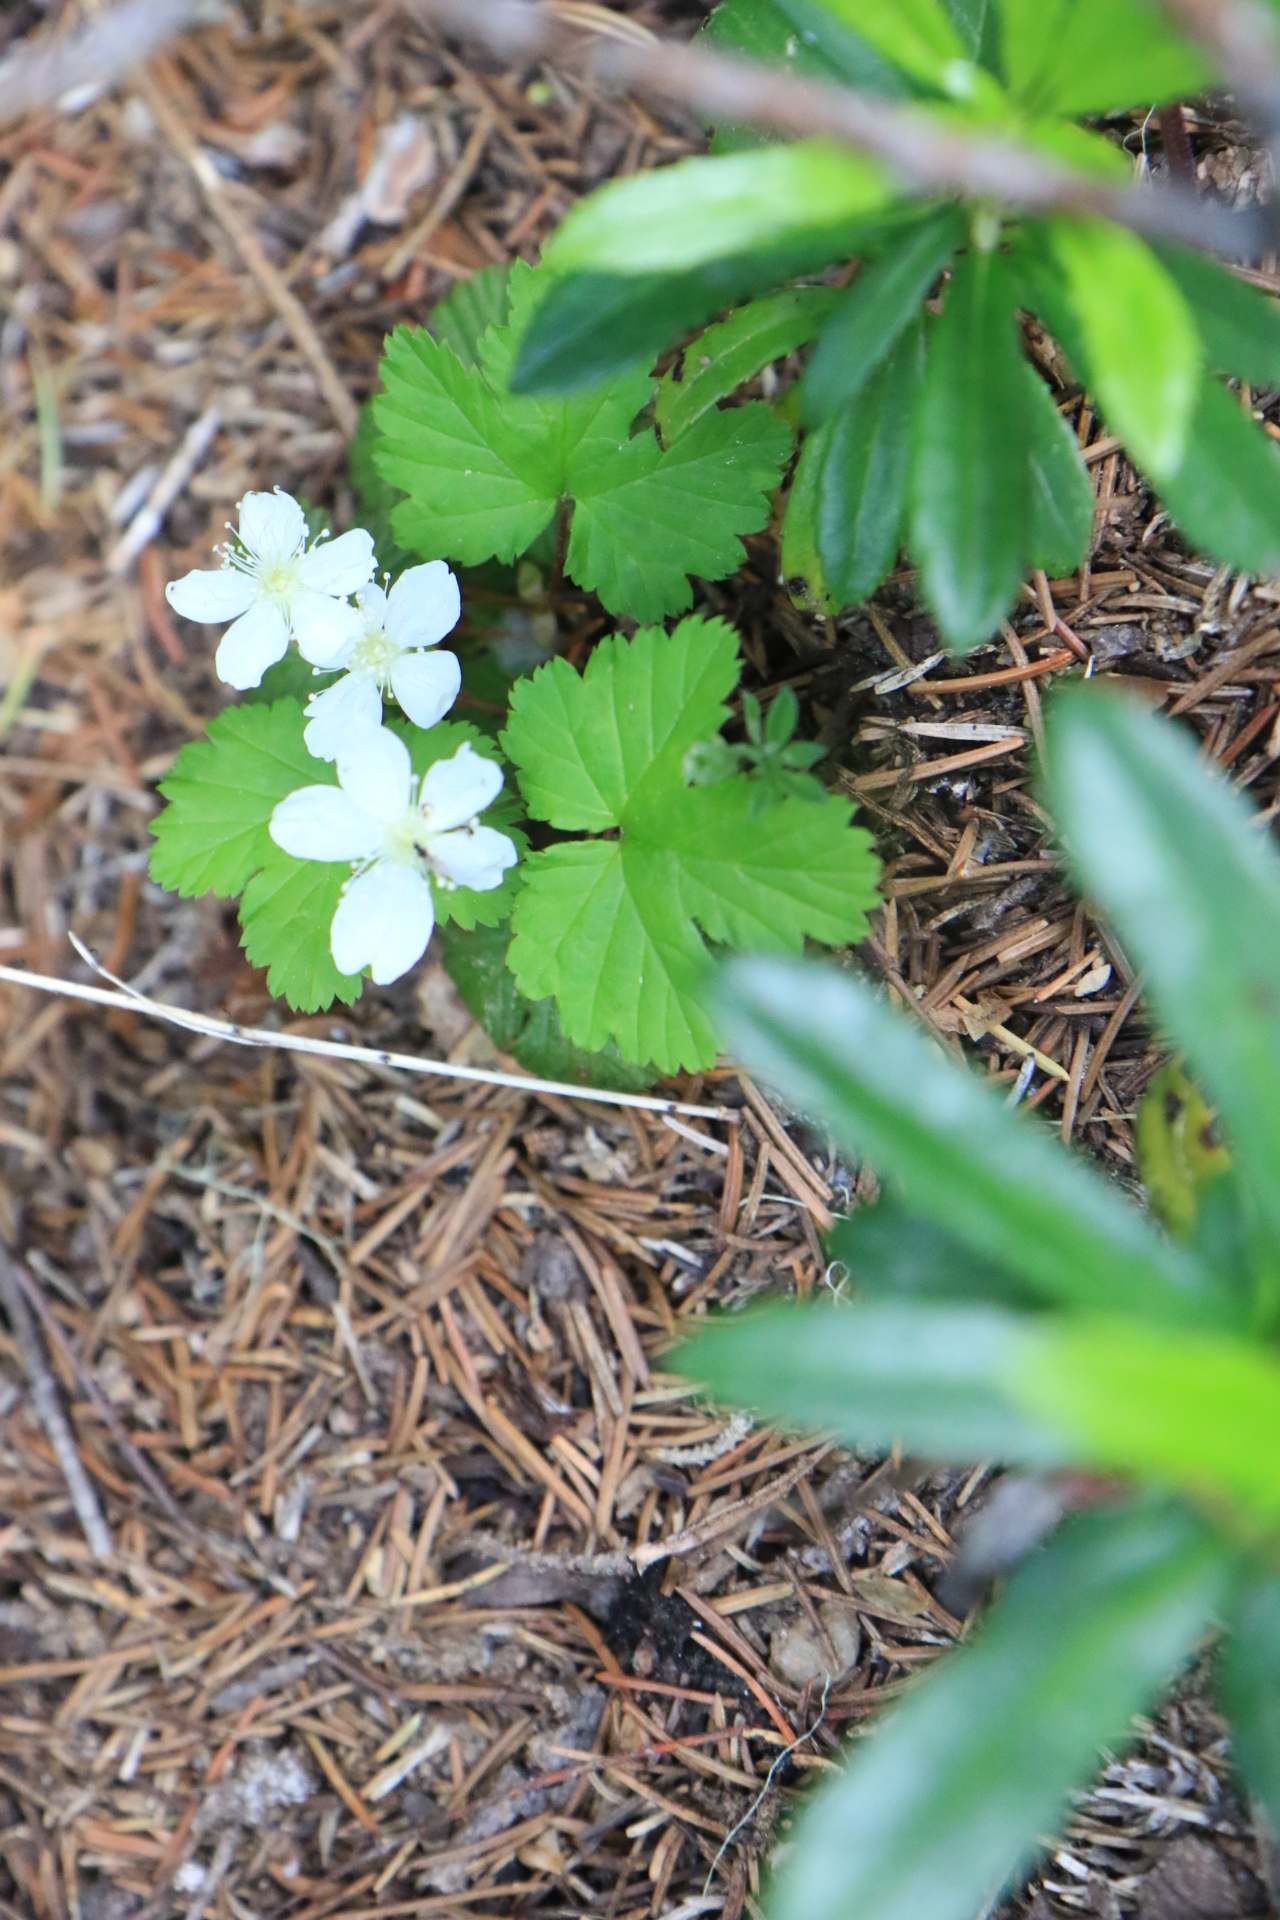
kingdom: Plantae
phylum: Tracheophyta
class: Magnoliopsida
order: Rosales
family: Rosaceae
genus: Rubus
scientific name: Rubus lasiococcus
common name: Dwarf bramble
